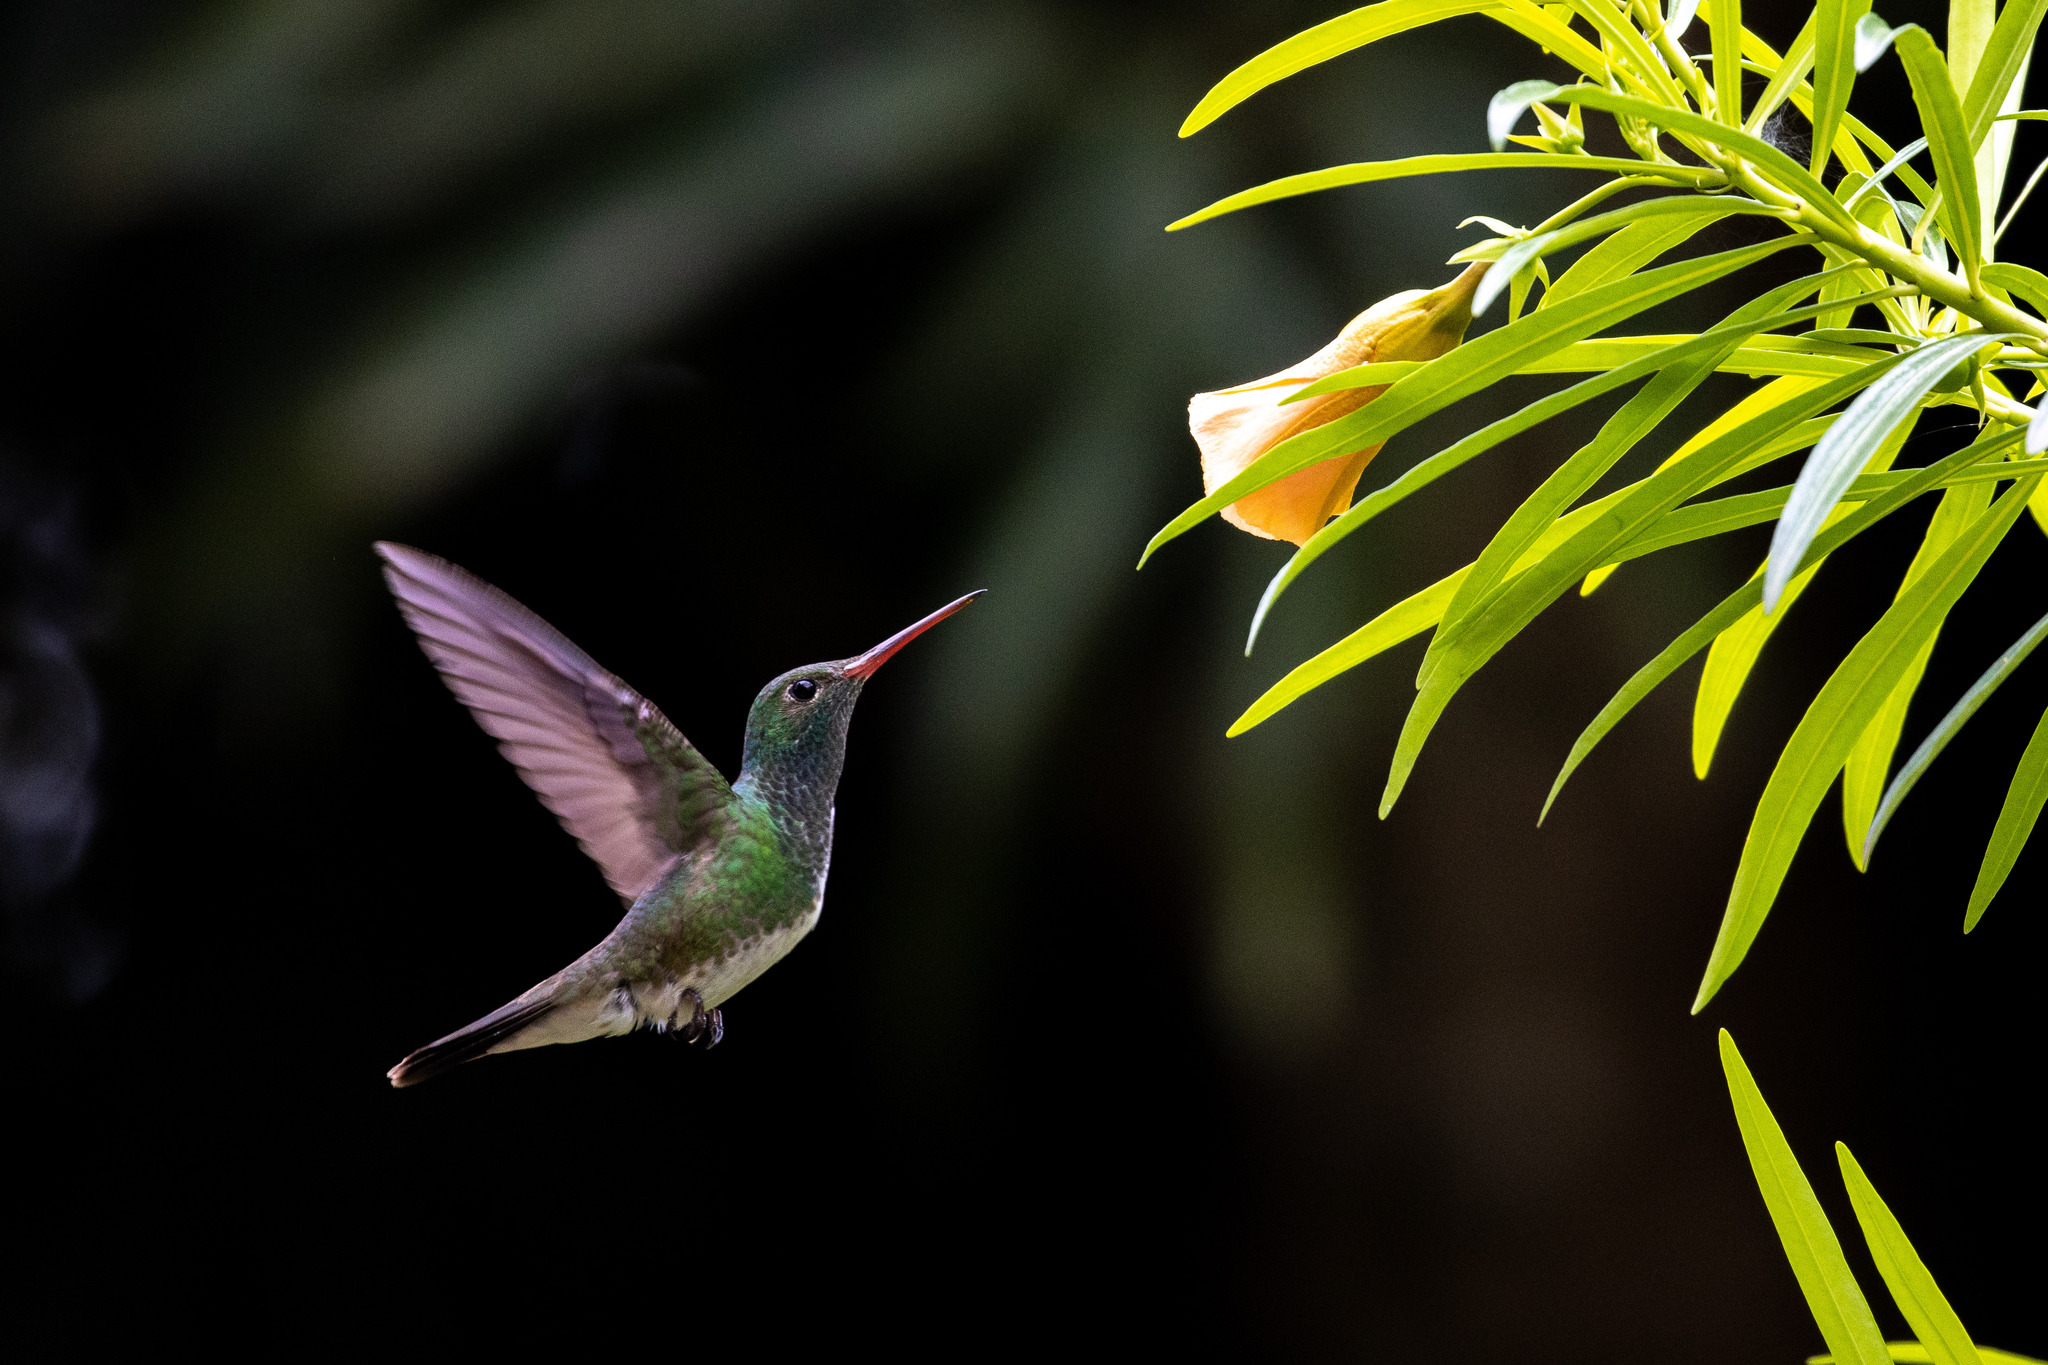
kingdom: Animalia
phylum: Chordata
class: Aves
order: Apodiformes
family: Trochilidae
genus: Chionomesa
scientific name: Chionomesa fimbriata
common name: Glittering-throated emerald
